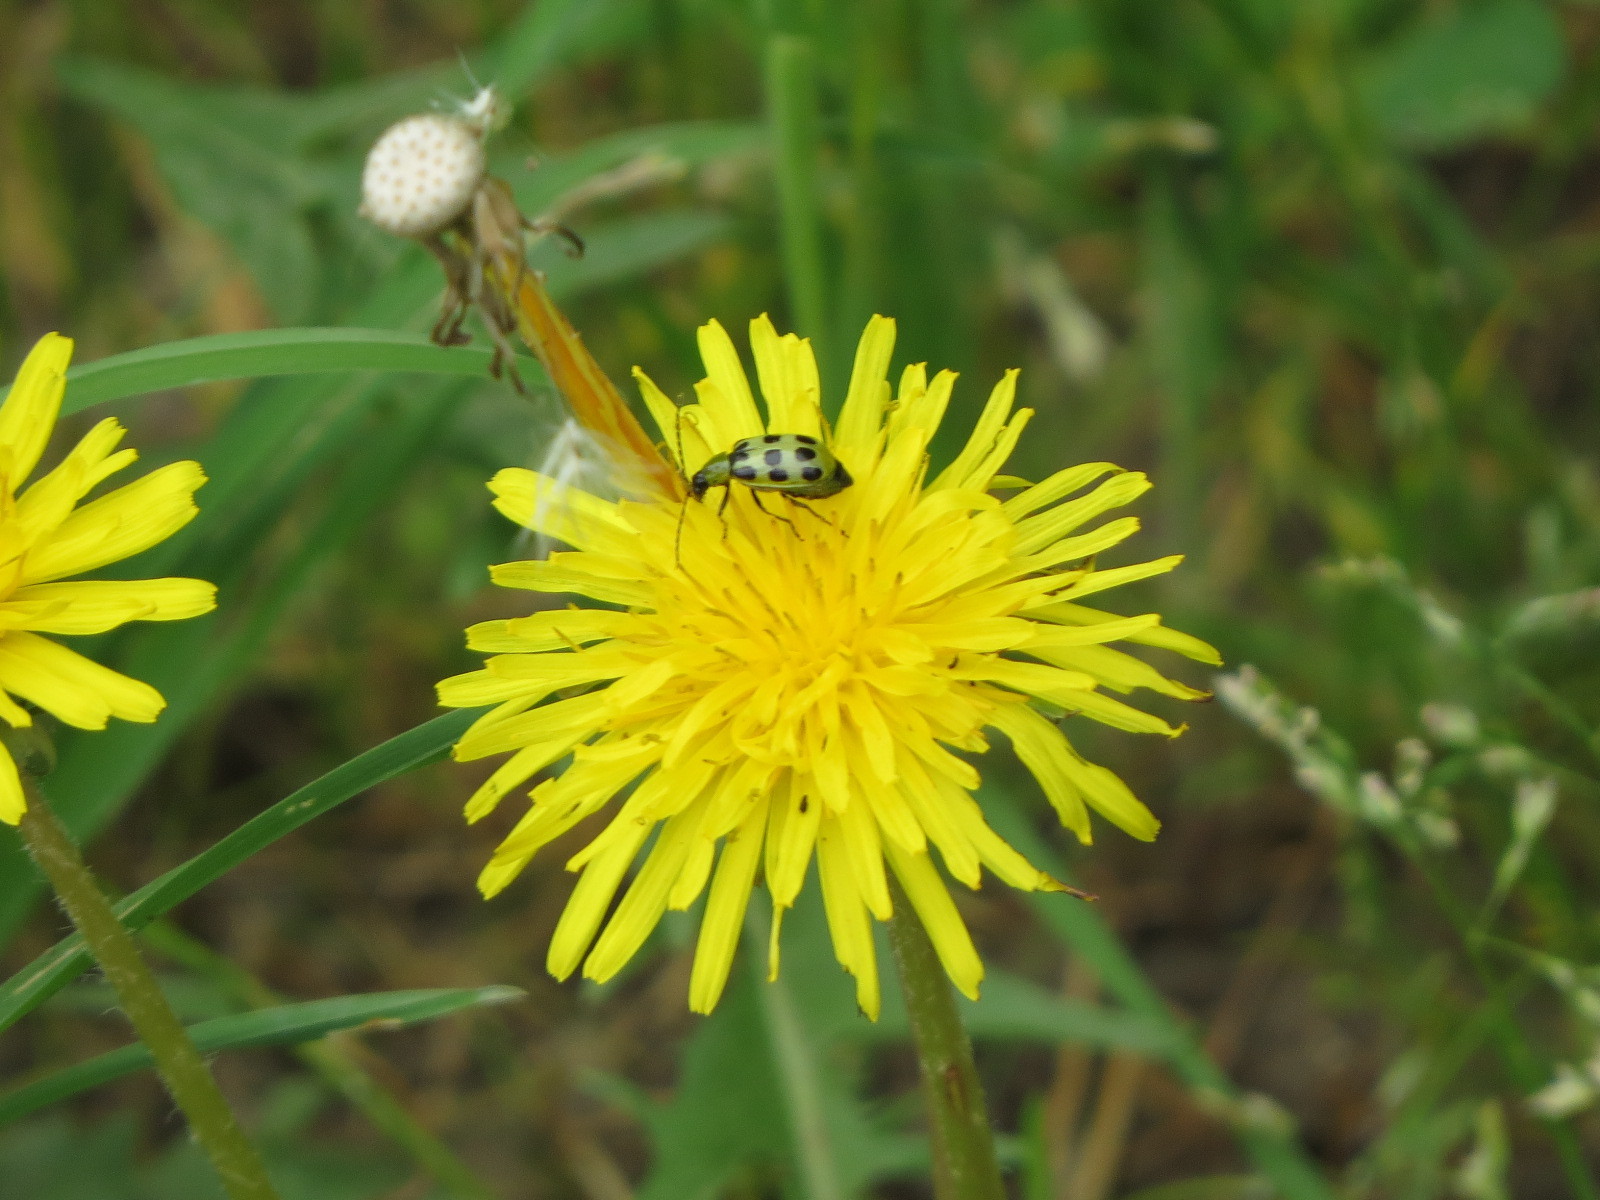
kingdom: Animalia
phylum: Arthropoda
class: Insecta
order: Coleoptera
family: Chrysomelidae
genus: Diabrotica
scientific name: Diabrotica undecimpunctata
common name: Spotted cucumber beetle
